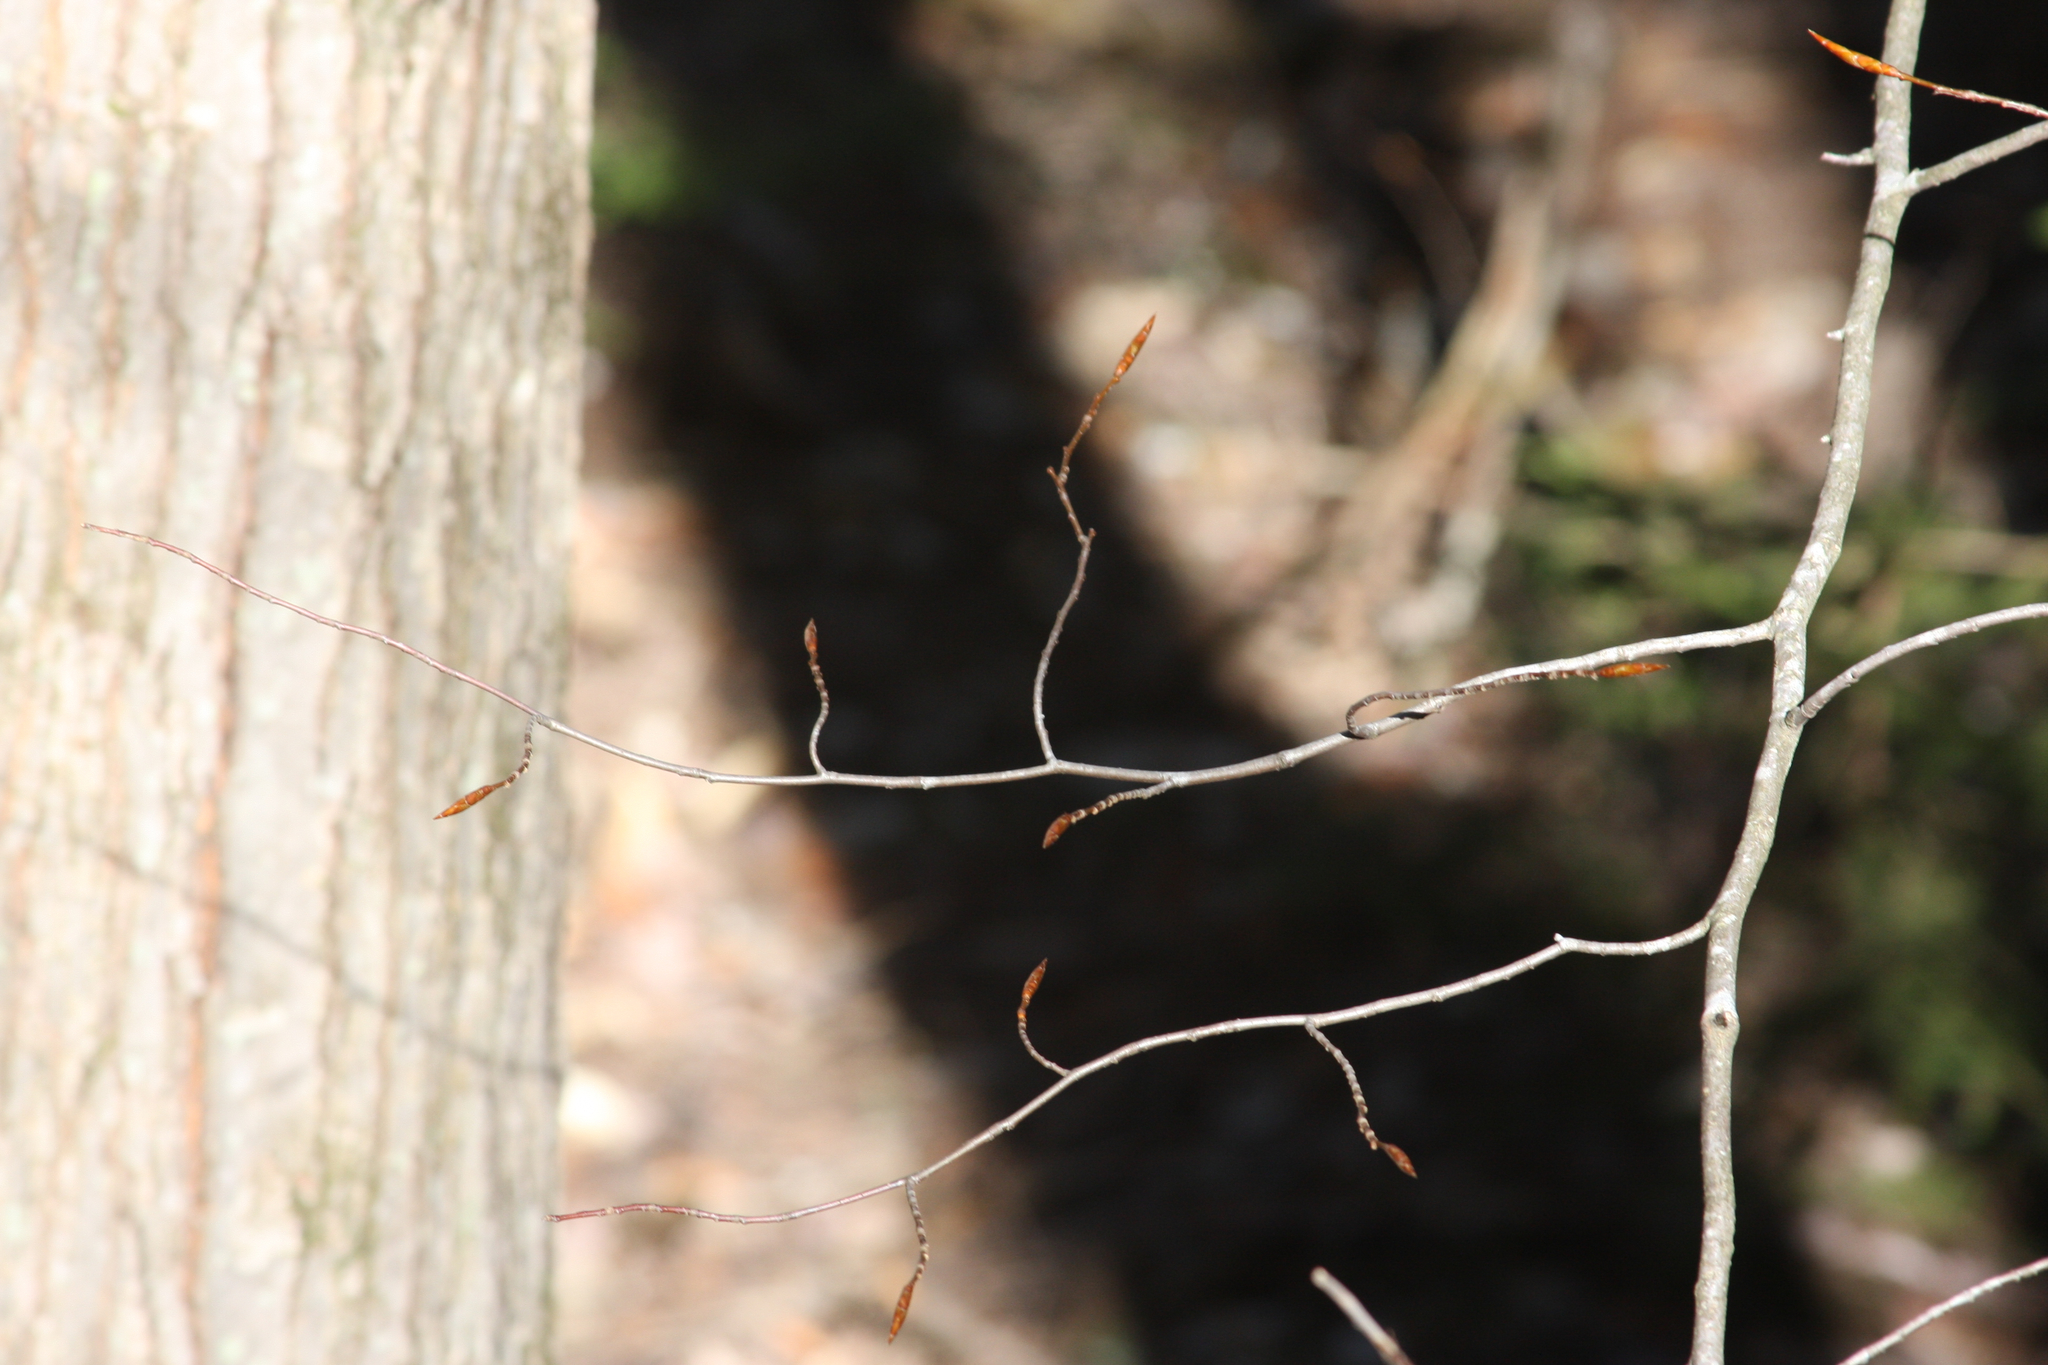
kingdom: Plantae
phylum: Tracheophyta
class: Magnoliopsida
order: Fagales
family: Fagaceae
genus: Fagus
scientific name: Fagus grandifolia
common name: American beech
